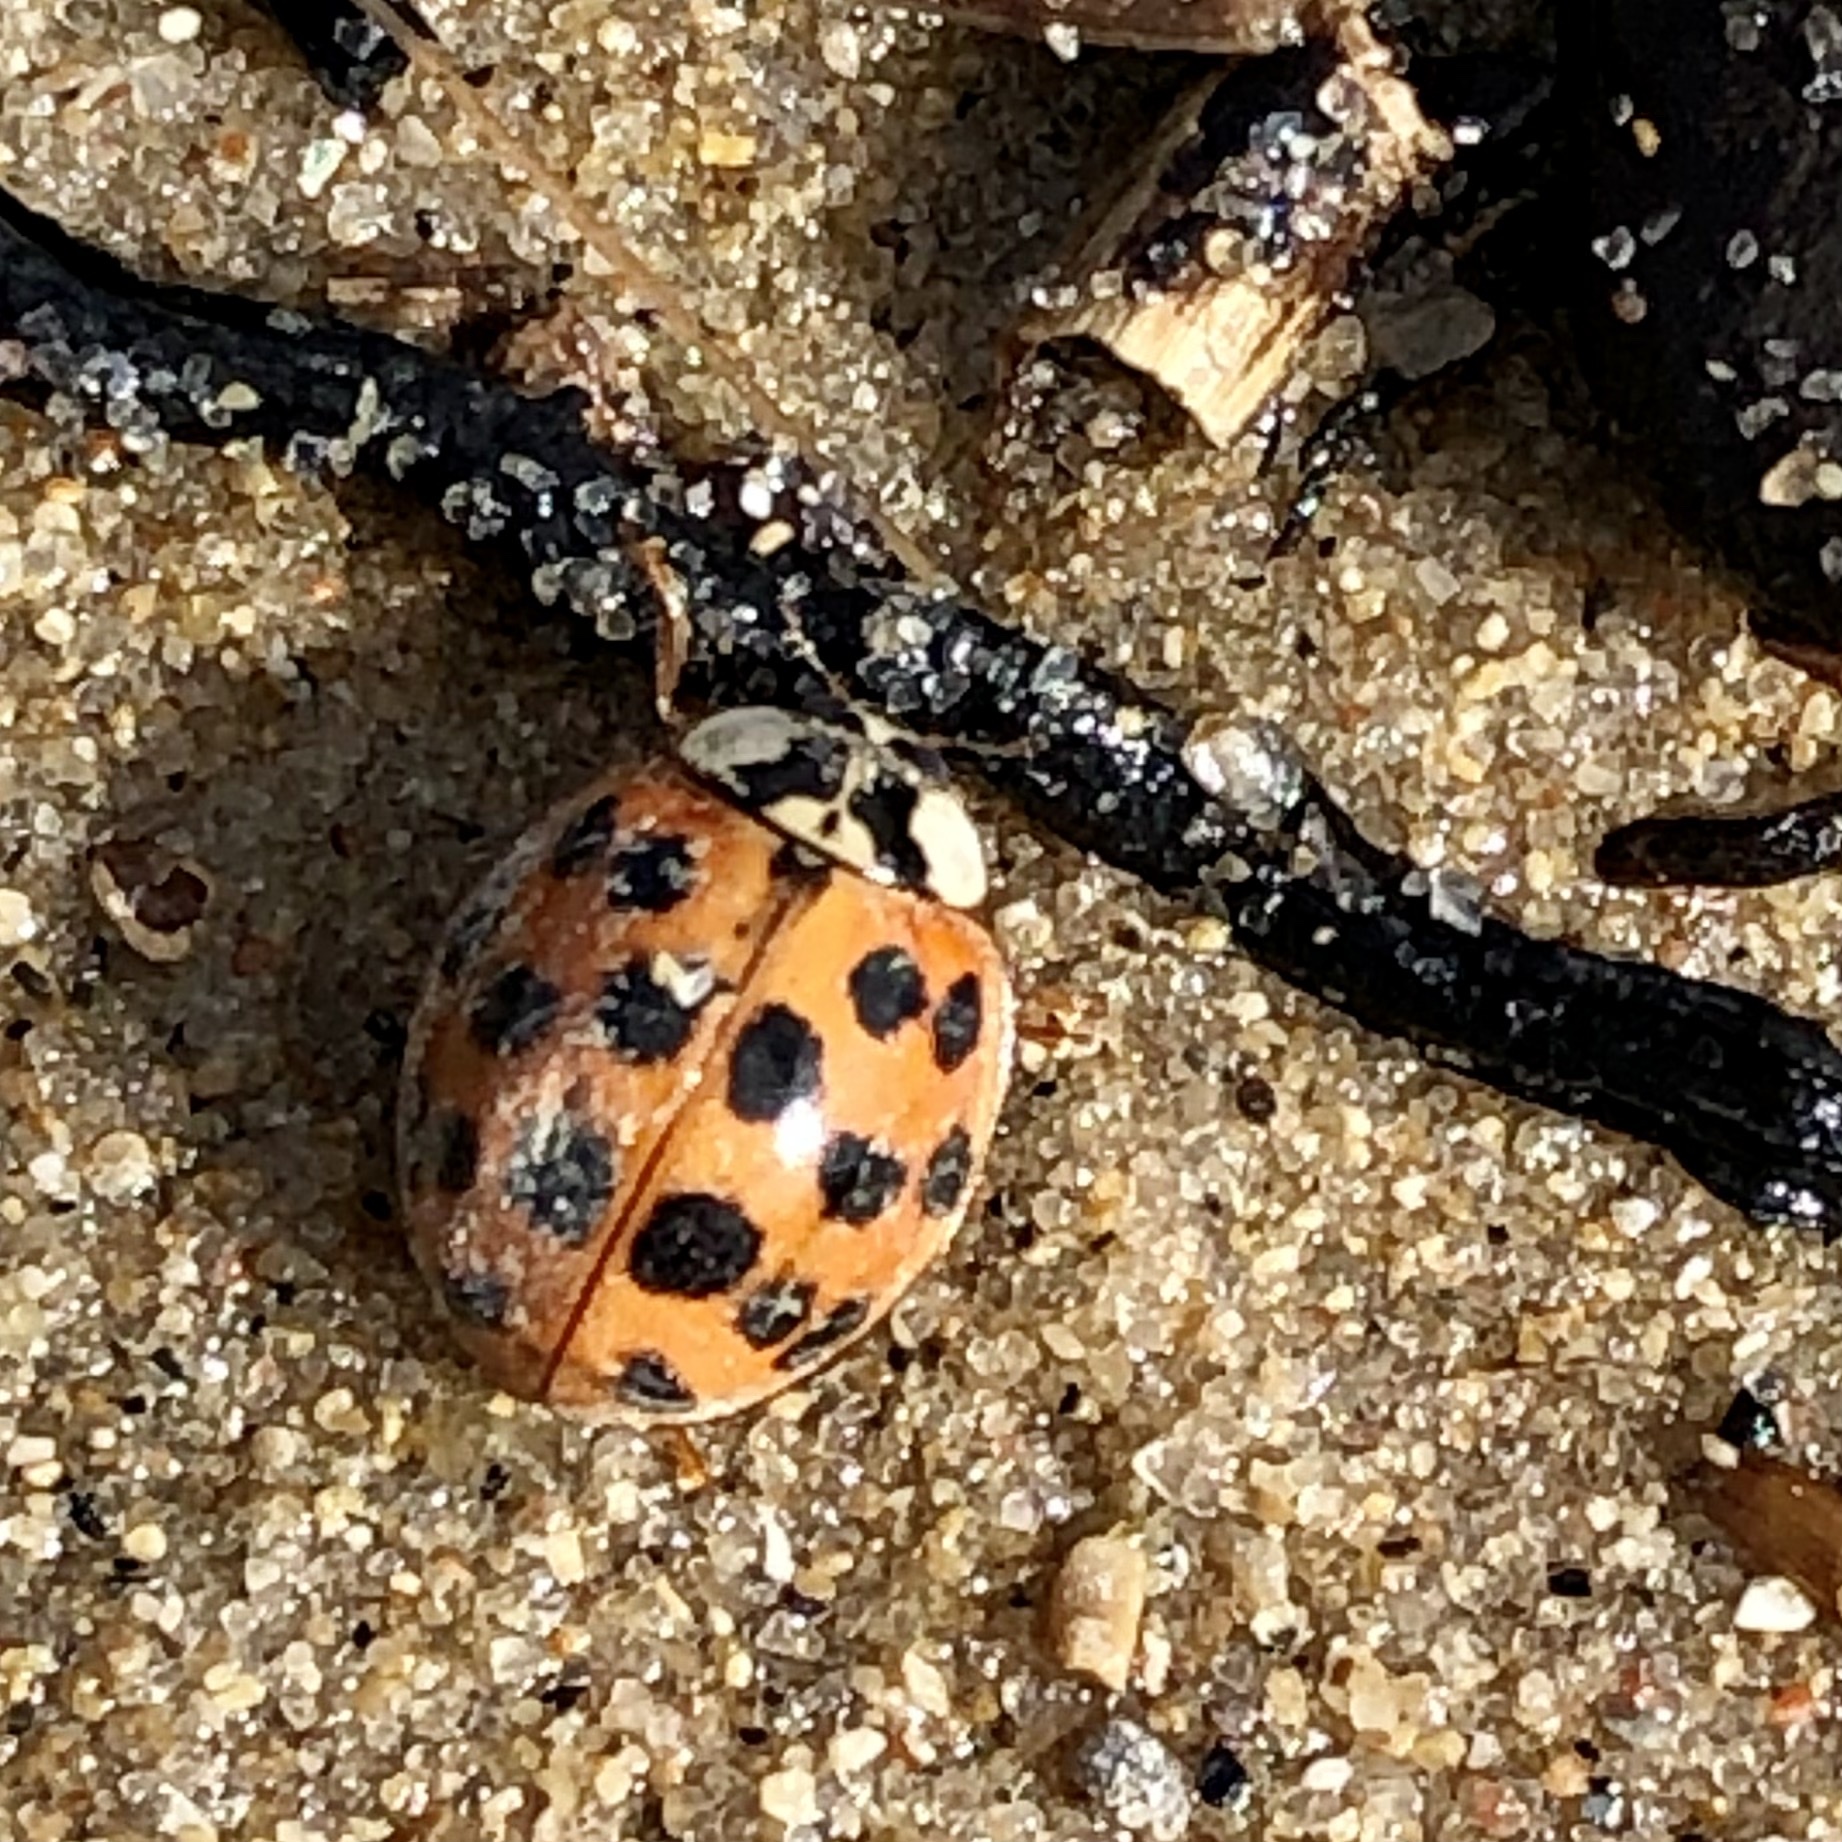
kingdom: Animalia
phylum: Arthropoda
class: Insecta
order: Coleoptera
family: Coccinellidae
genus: Harmonia
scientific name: Harmonia axyridis
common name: Harlequin ladybird
